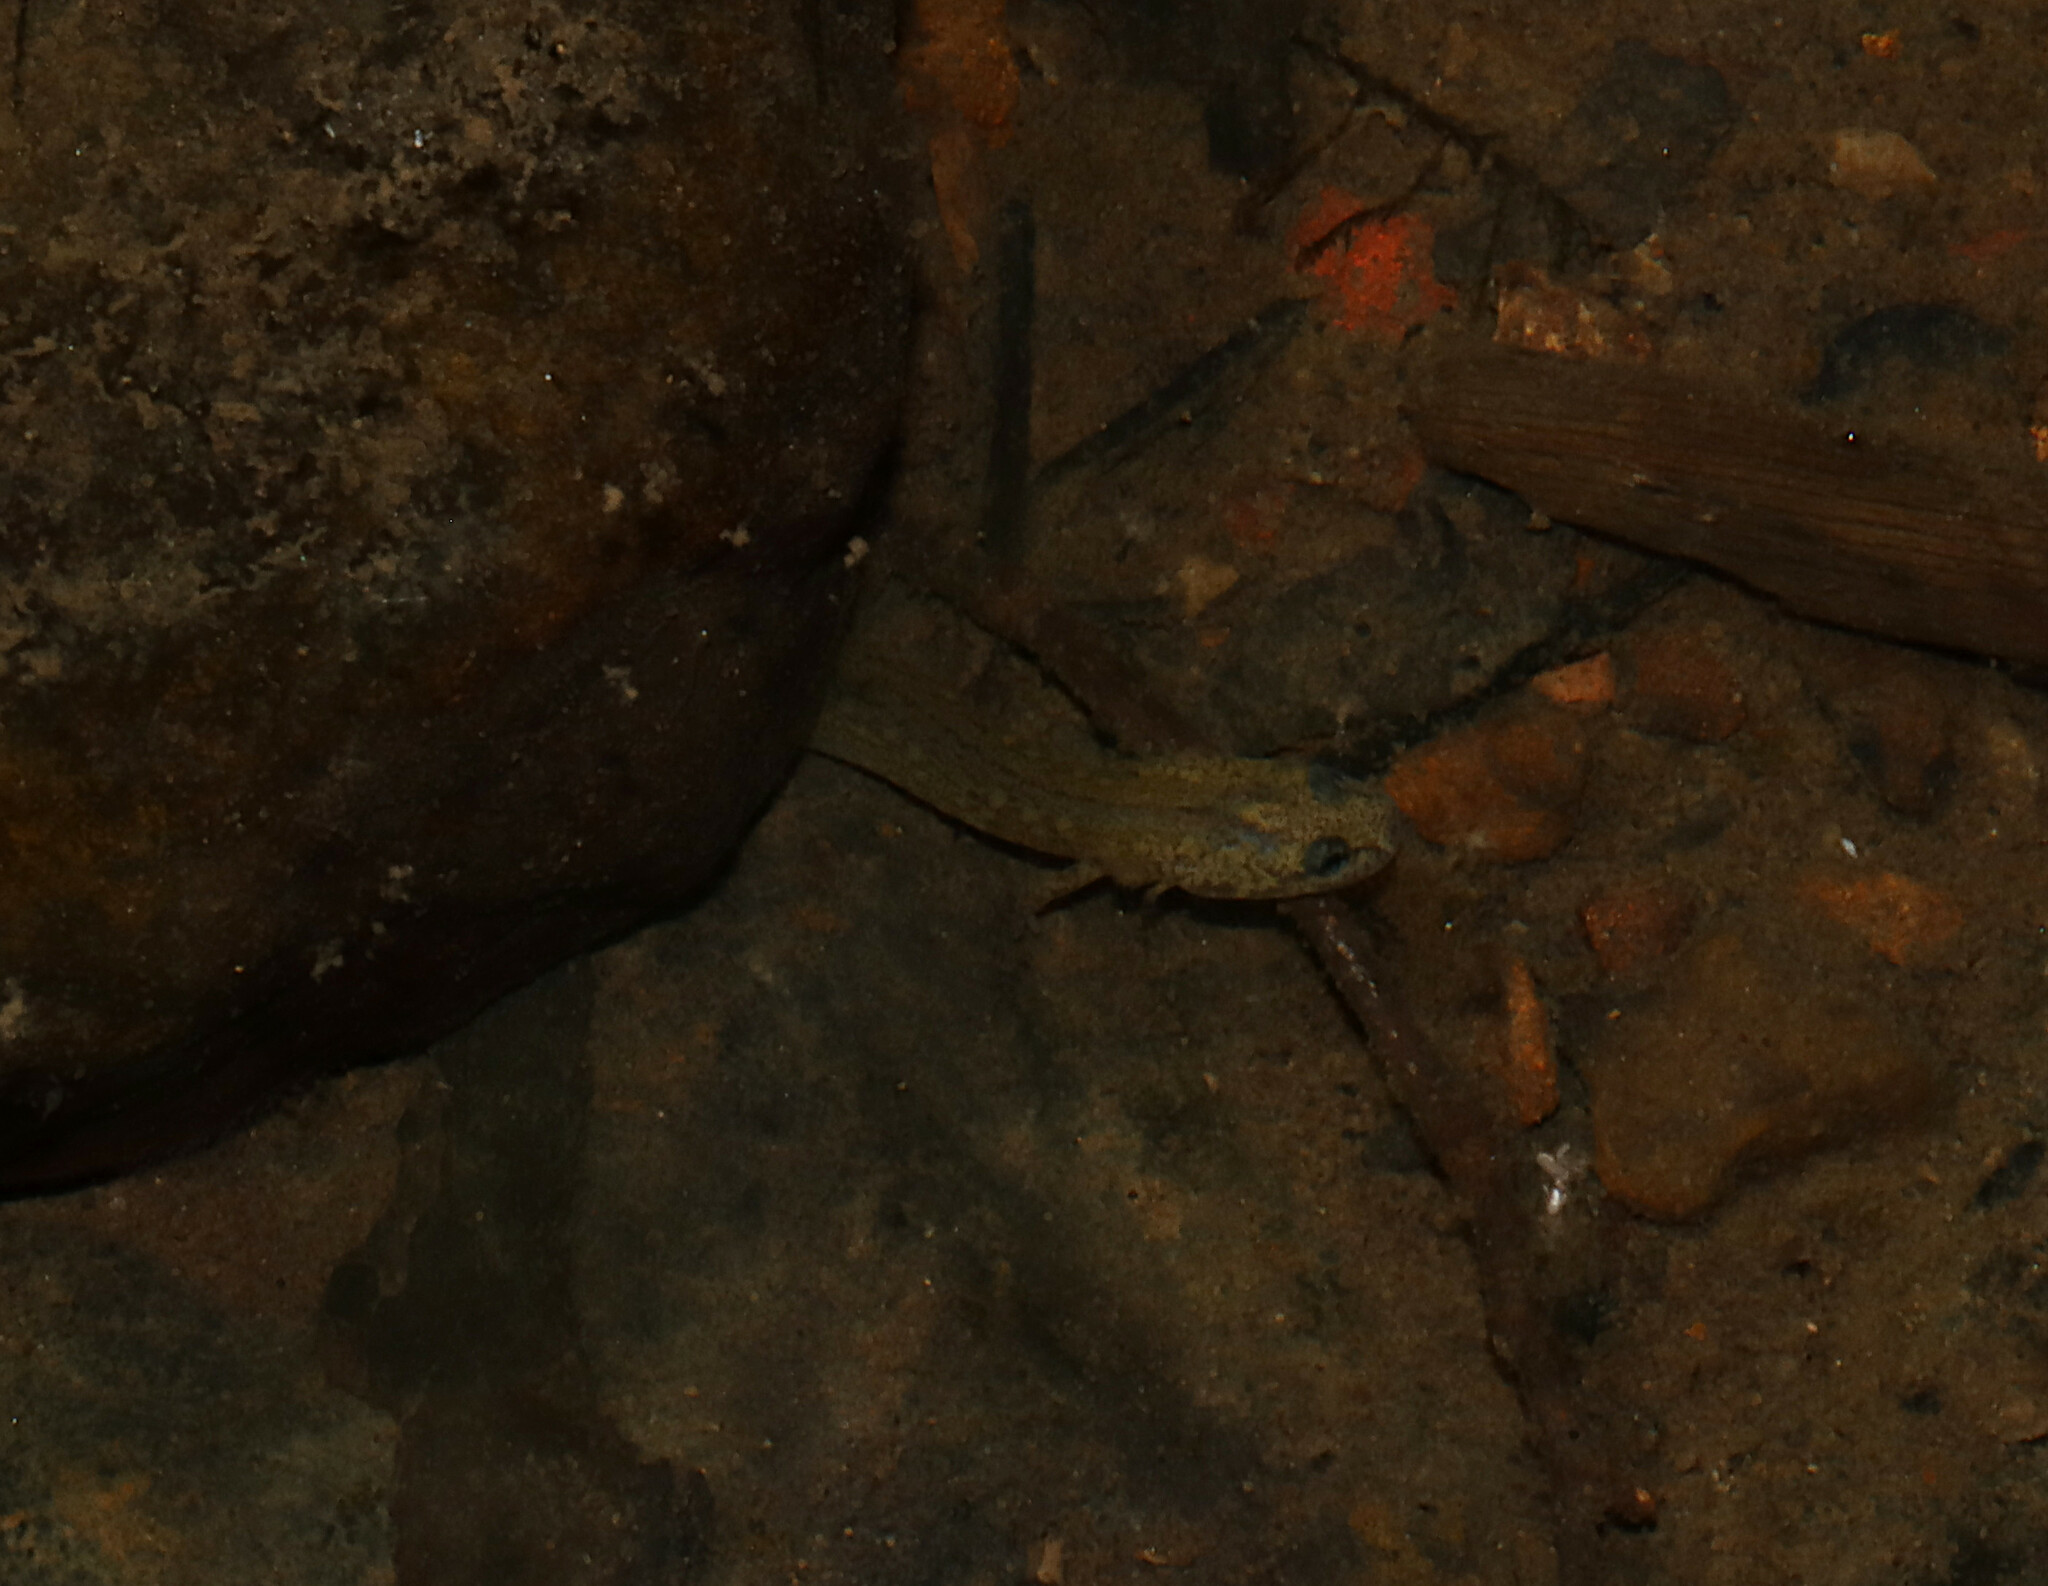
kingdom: Animalia
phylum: Chordata
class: Amphibia
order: Caudata
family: Plethodontidae
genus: Eurycea
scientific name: Eurycea tynerensis
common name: Oklahoma salamander
